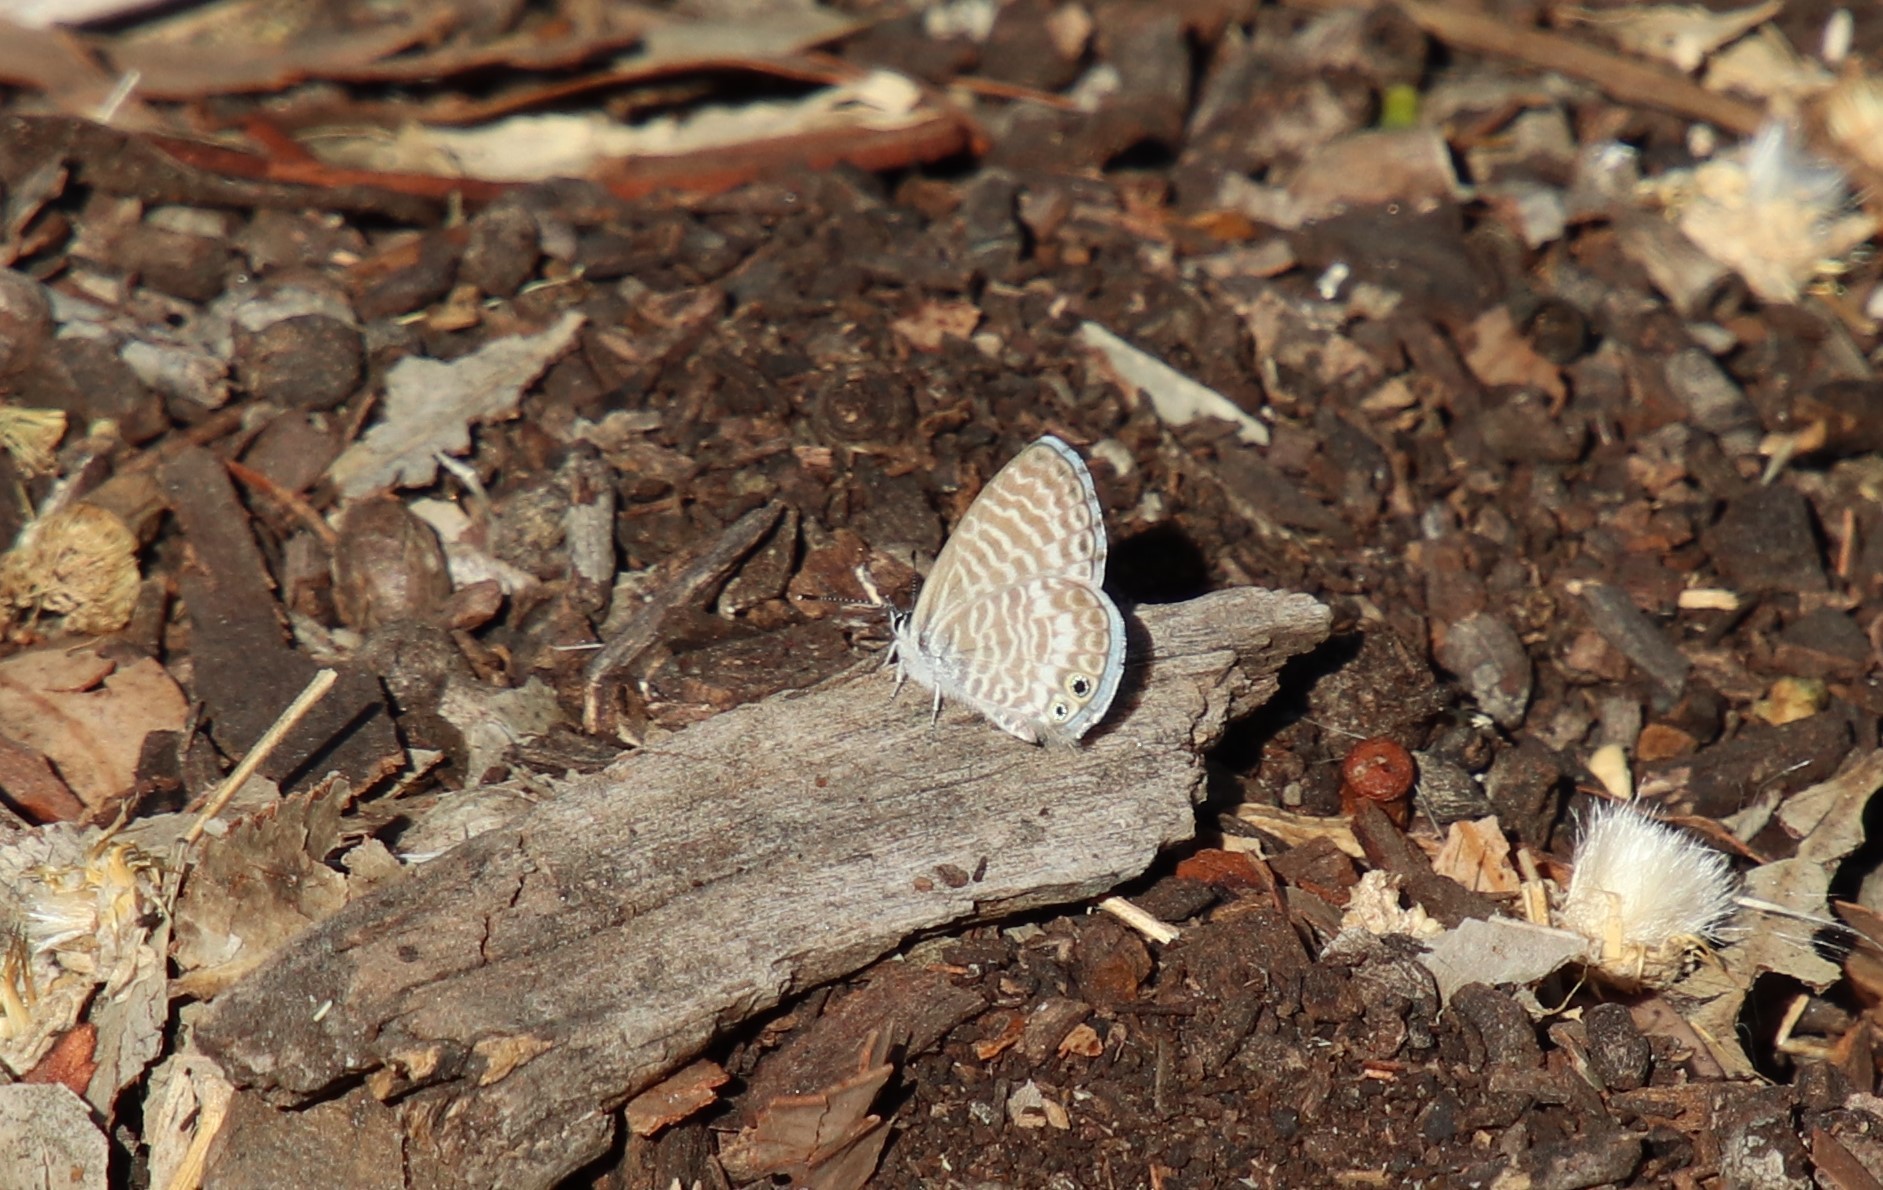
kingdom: Animalia
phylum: Arthropoda
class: Insecta
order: Lepidoptera
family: Lycaenidae
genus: Leptotes
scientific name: Leptotes marina
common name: Marine blue
